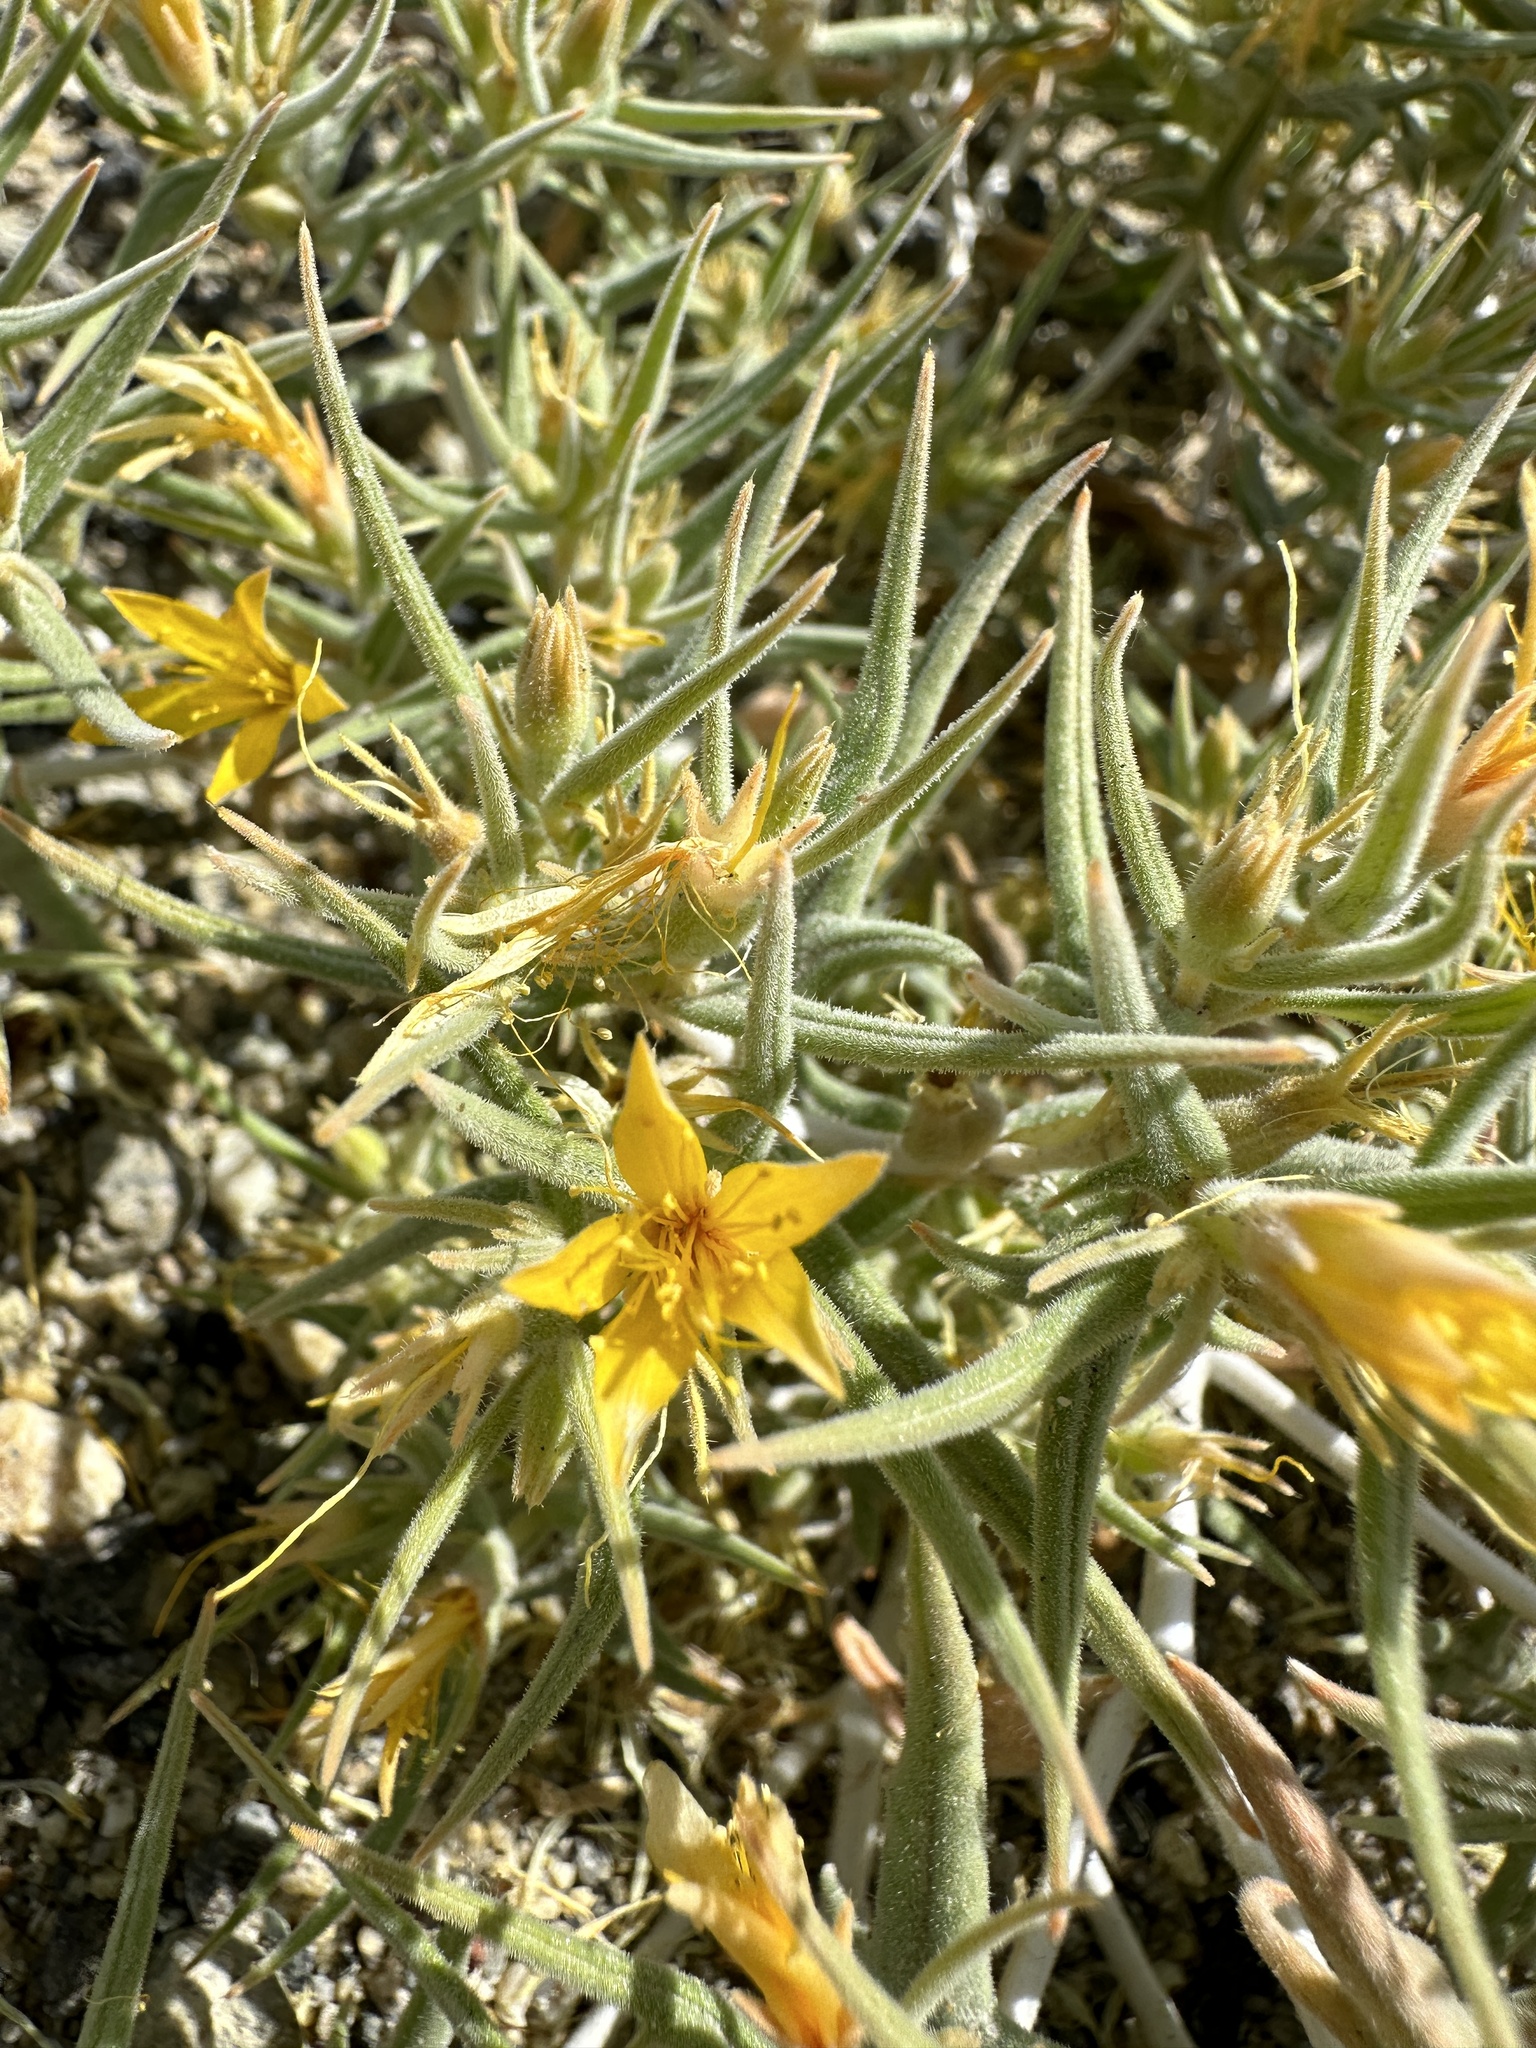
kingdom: Plantae
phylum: Tracheophyta
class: Magnoliopsida
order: Cornales
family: Loasaceae
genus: Mentzelia
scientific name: Mentzelia torreyi
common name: Torrey's blazingstar
